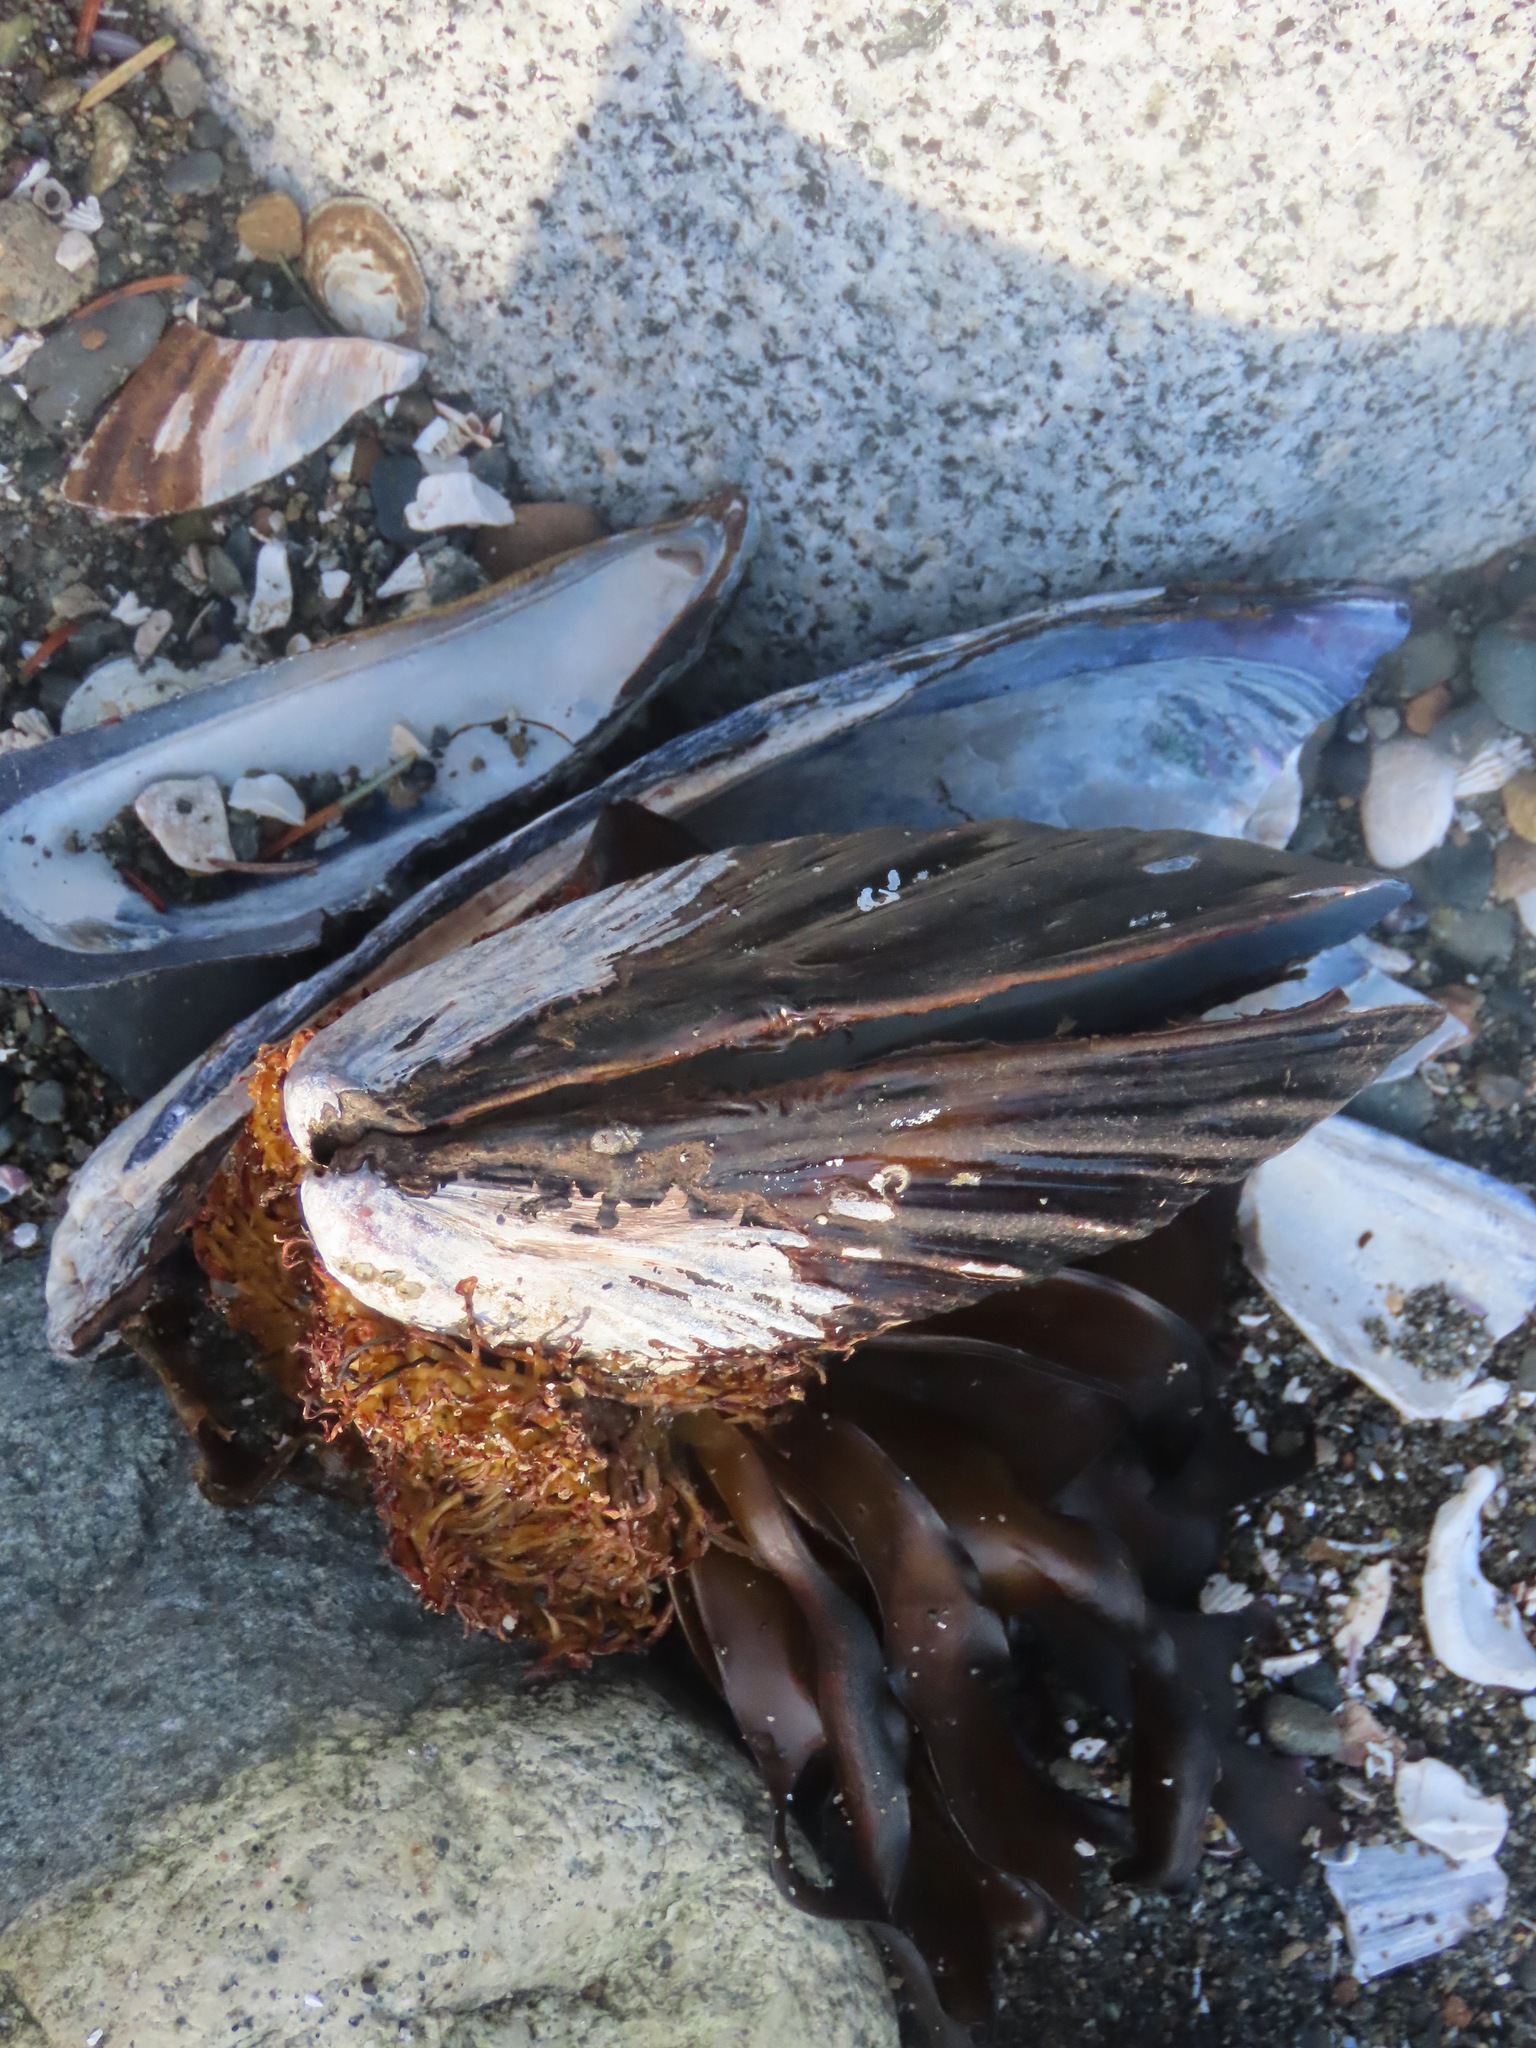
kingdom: Animalia
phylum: Mollusca
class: Bivalvia
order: Mytilida
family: Mytilidae
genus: Mytilus
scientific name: Mytilus californianus
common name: California mussel
